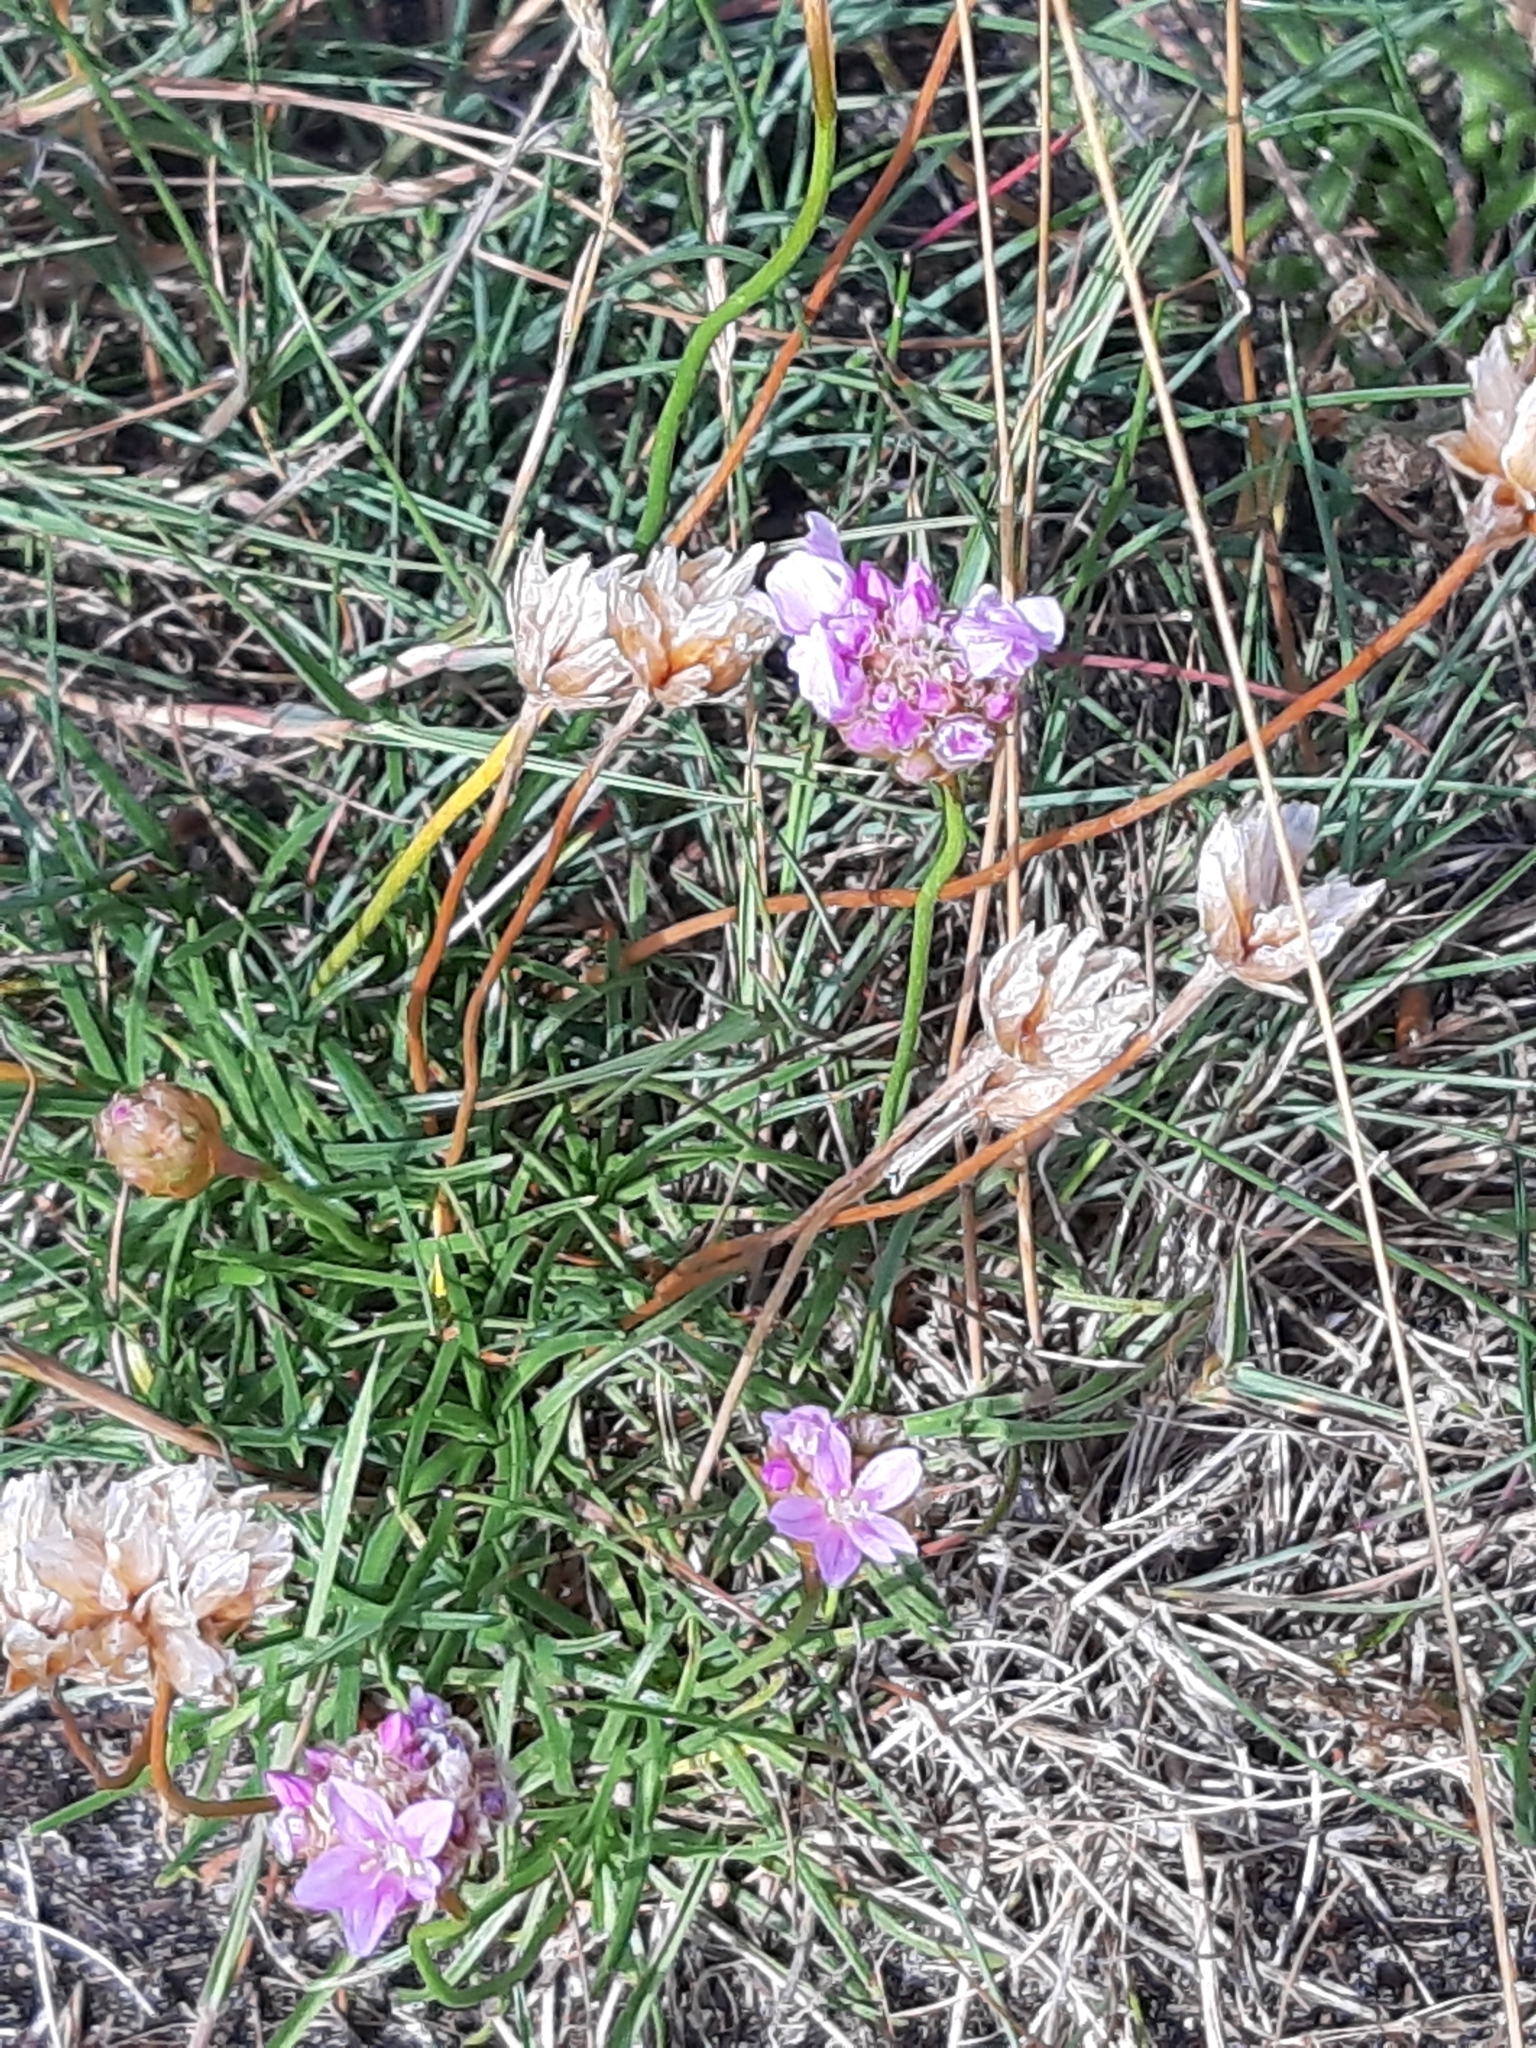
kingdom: Plantae
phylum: Tracheophyta
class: Magnoliopsida
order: Caryophyllales
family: Plumbaginaceae
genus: Armeria
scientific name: Armeria maritima
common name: Thrift
